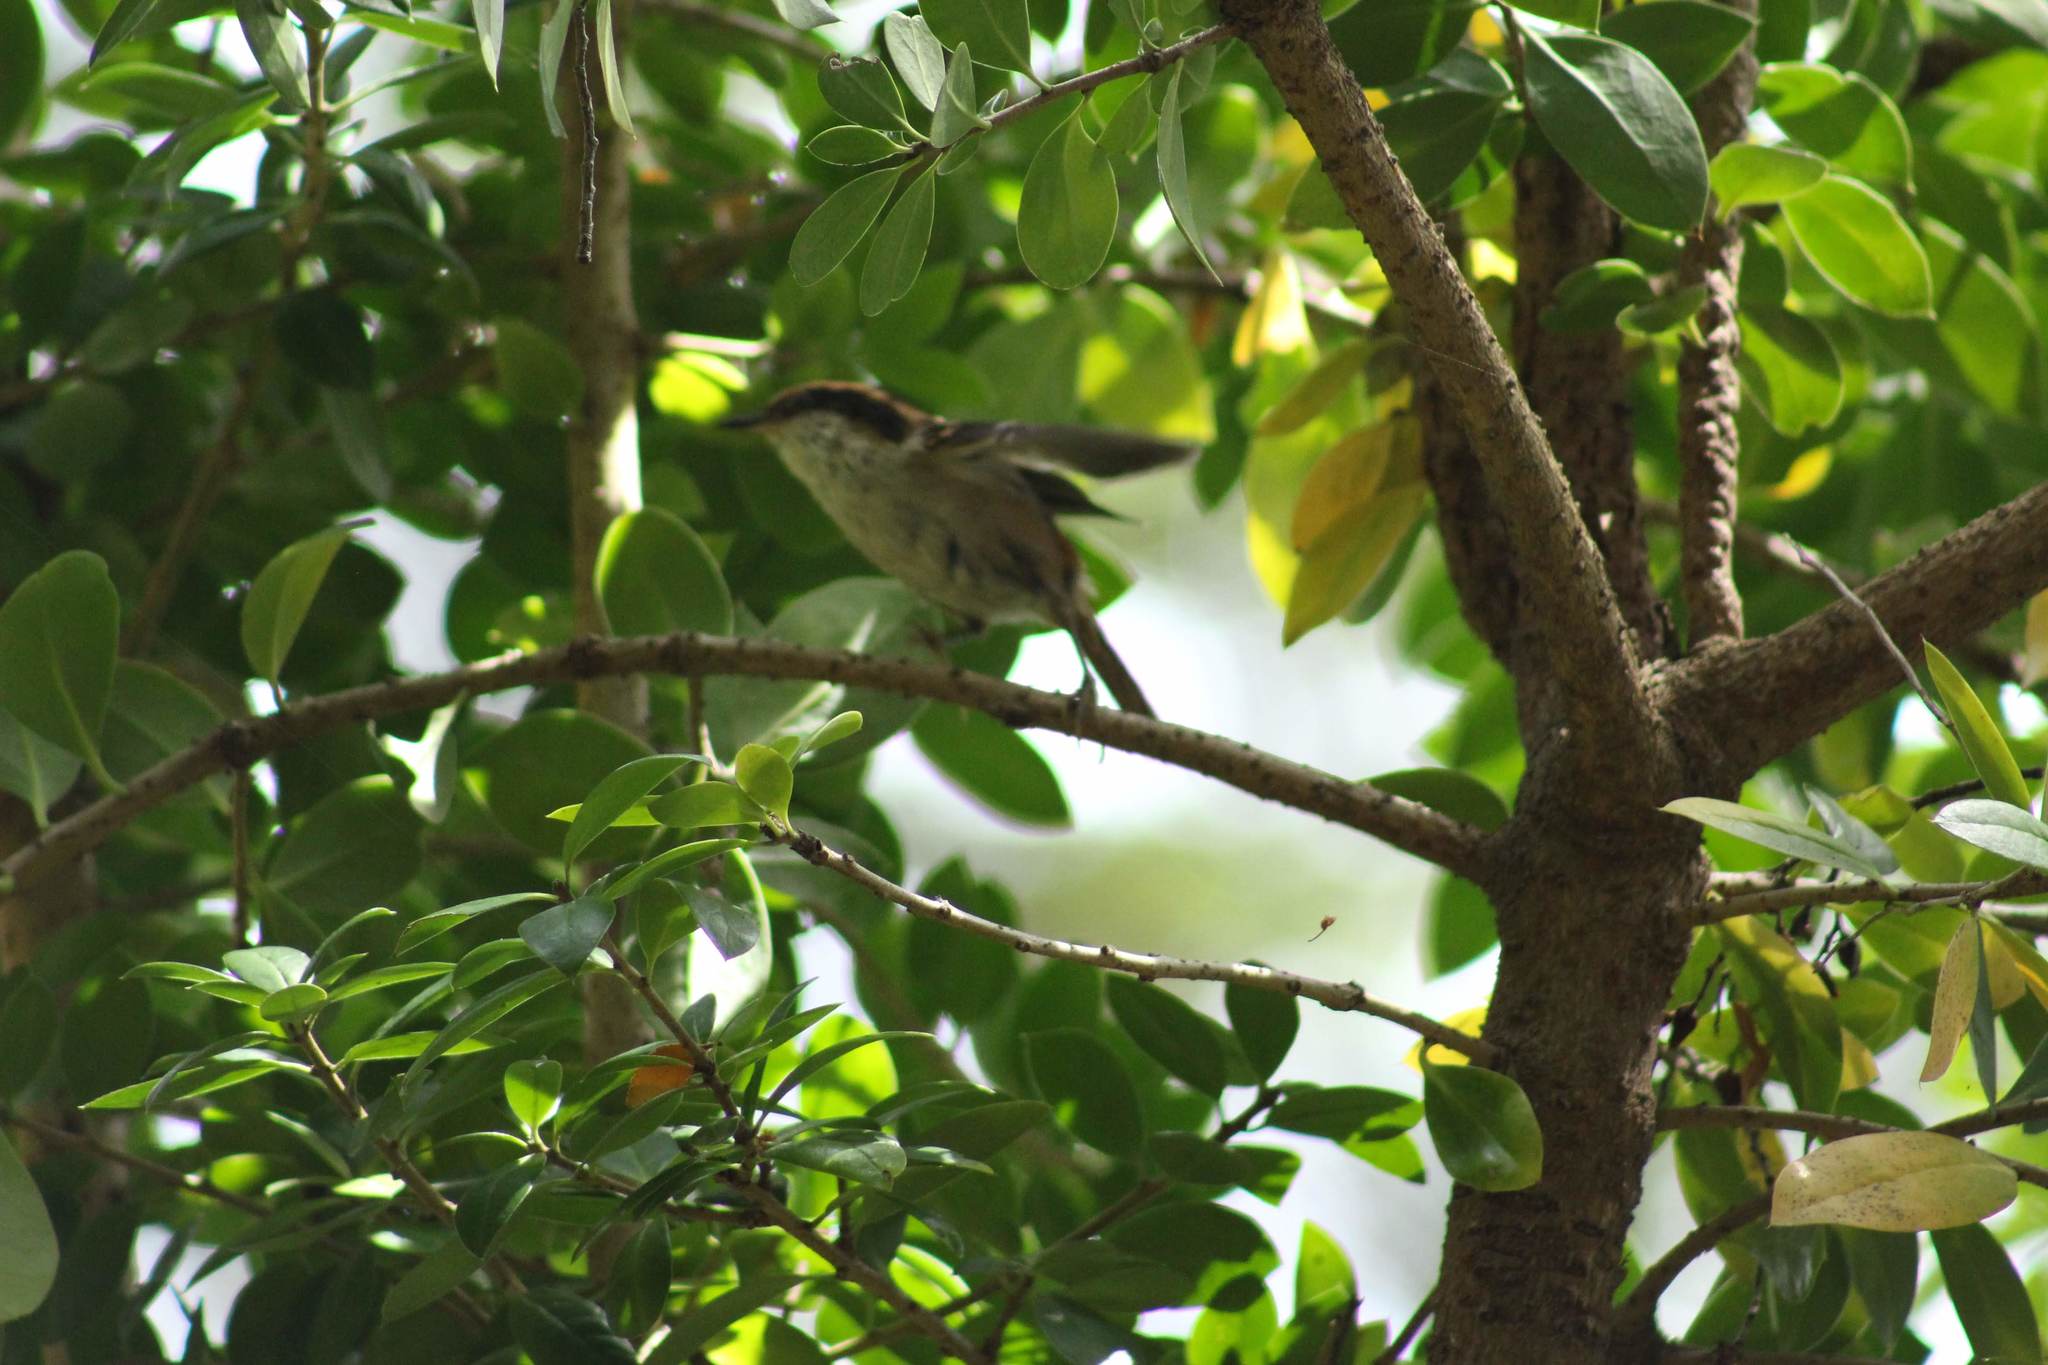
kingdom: Animalia
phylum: Chordata
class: Aves
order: Passeriformes
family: Furnariidae
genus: Aphrastura
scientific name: Aphrastura spinicauda
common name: Thorn-tailed rayadito
